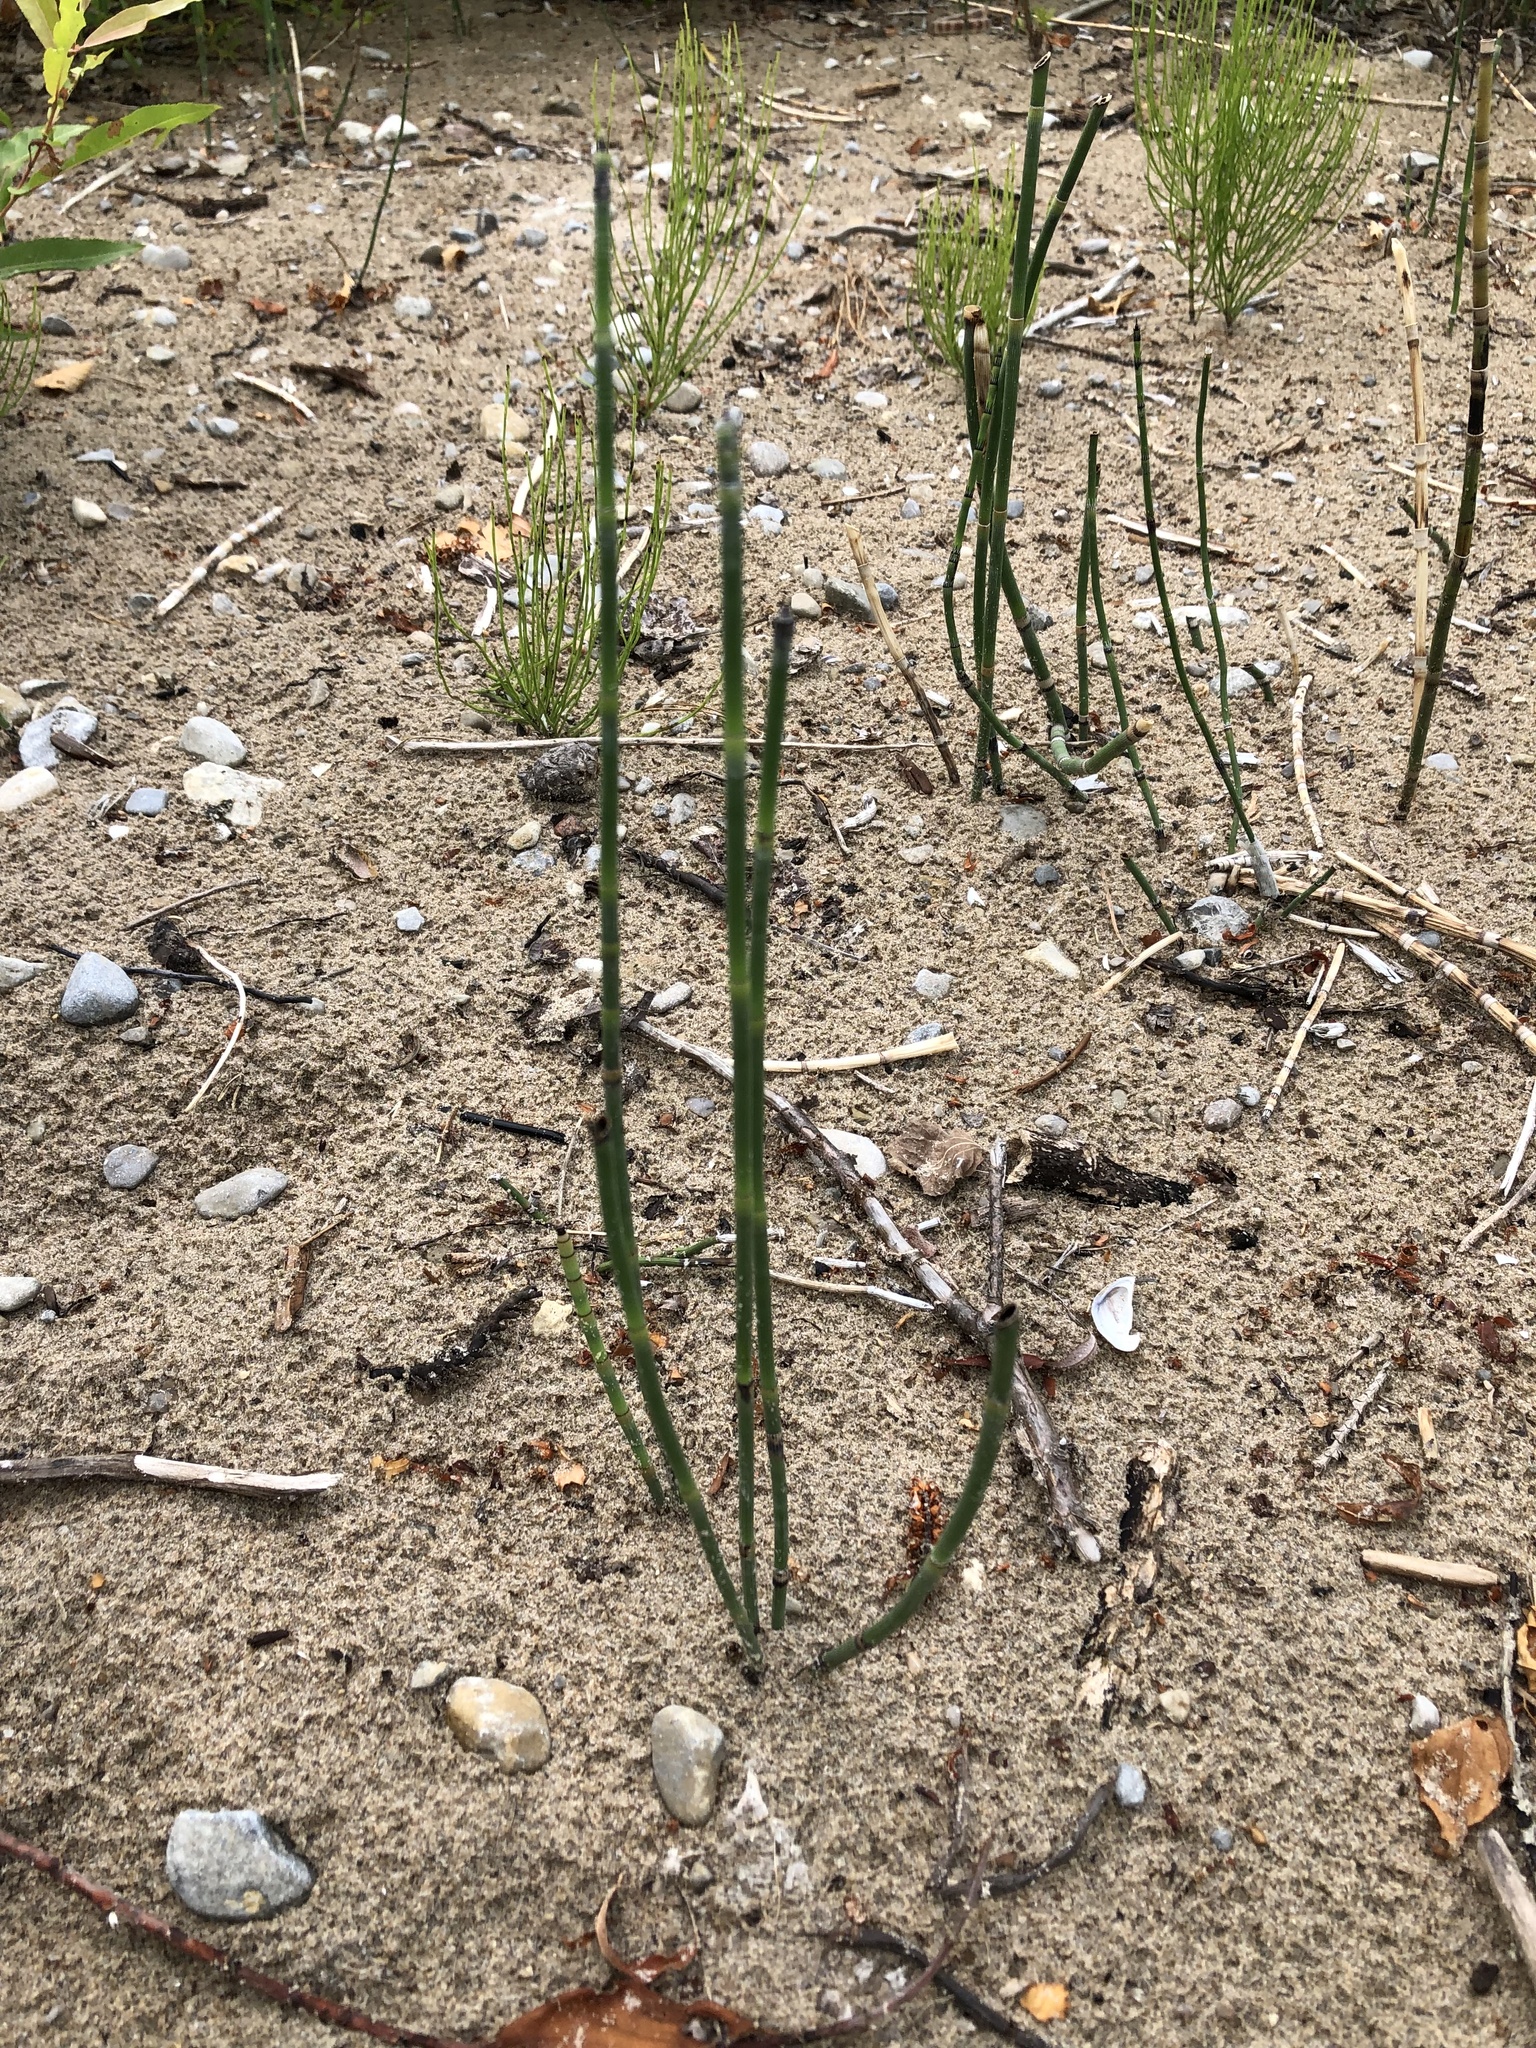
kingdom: Plantae
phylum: Tracheophyta
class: Polypodiopsida
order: Equisetales
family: Equisetaceae
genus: Equisetum
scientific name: Equisetum hyemale
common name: Rough horsetail
